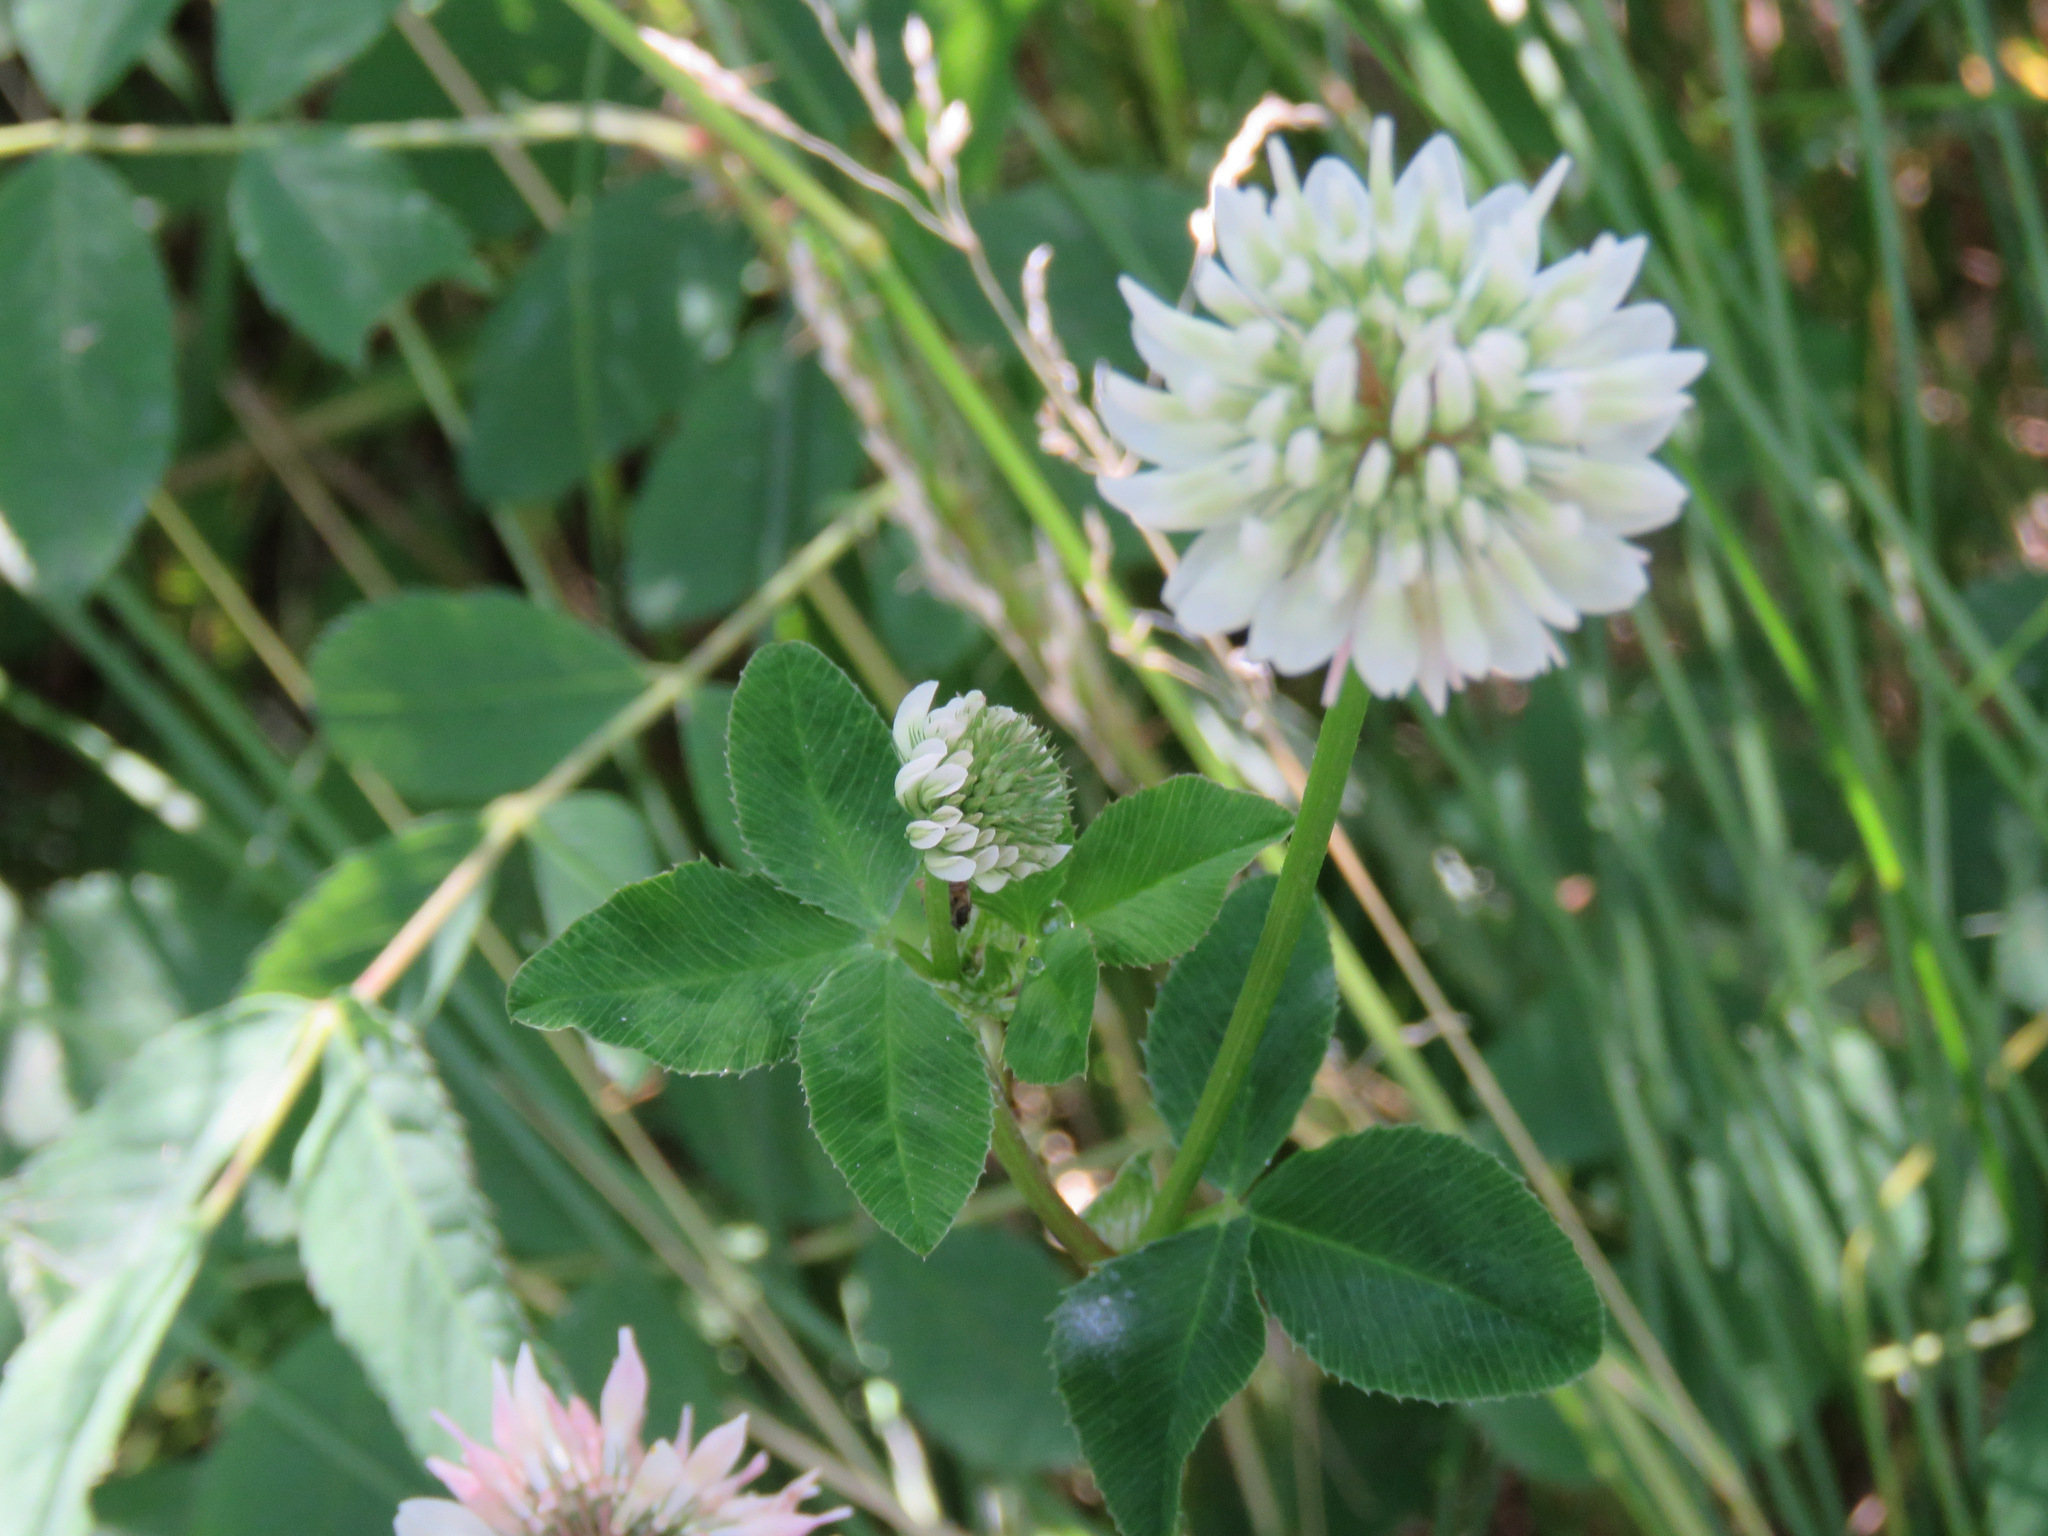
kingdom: Plantae
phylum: Tracheophyta
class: Magnoliopsida
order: Fabales
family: Fabaceae
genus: Trifolium
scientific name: Trifolium hybridum
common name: Alsike clover
